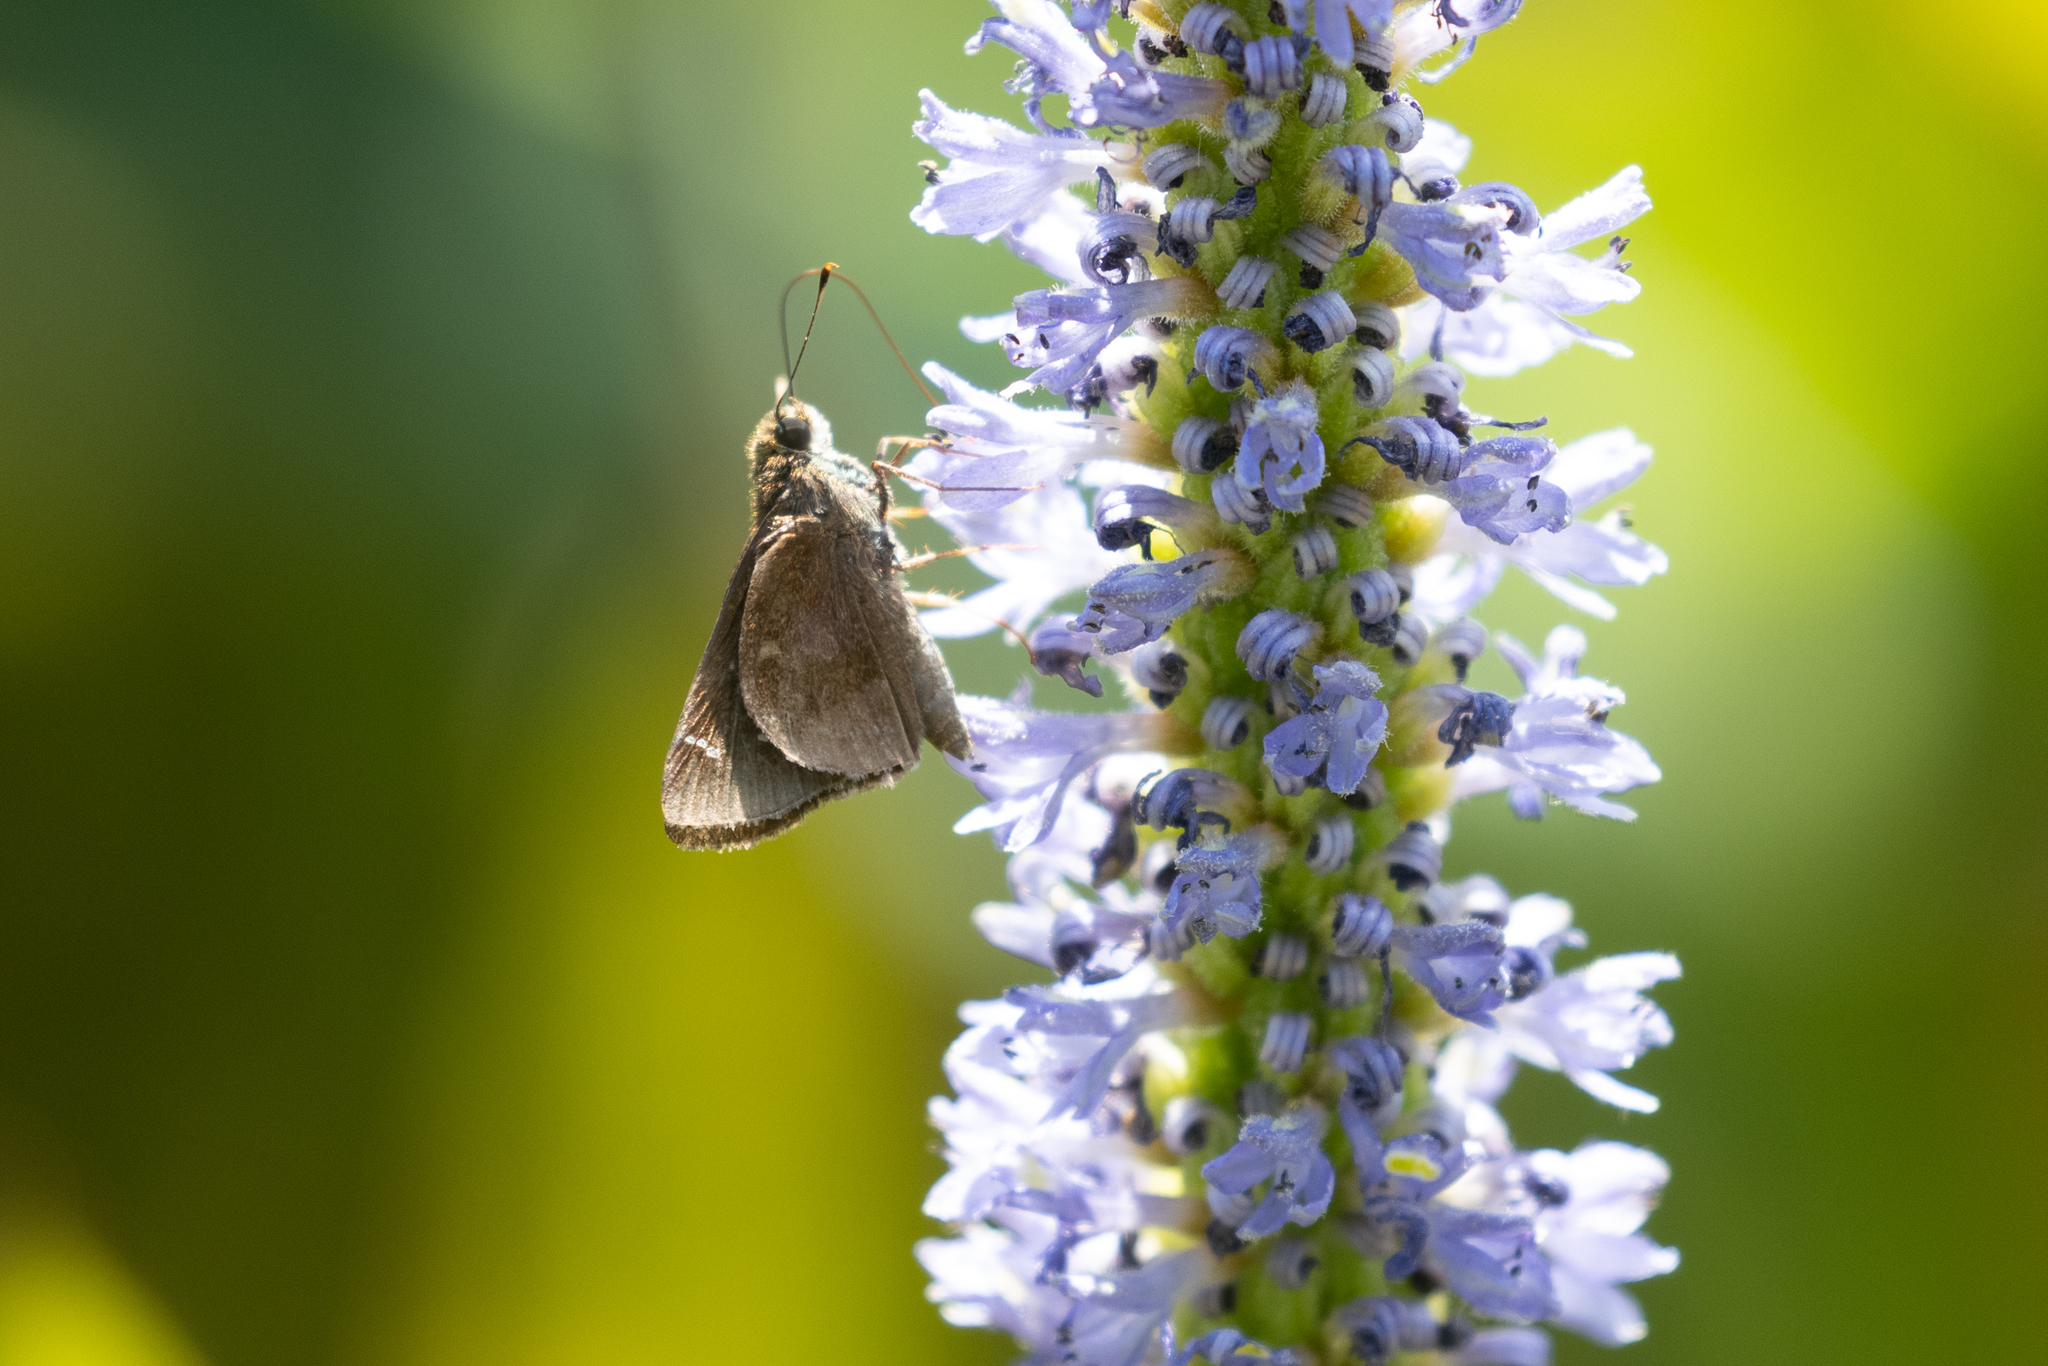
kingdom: Animalia
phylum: Arthropoda
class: Insecta
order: Lepidoptera
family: Hesperiidae
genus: Lerema
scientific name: Lerema accius
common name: Clouded skipper
